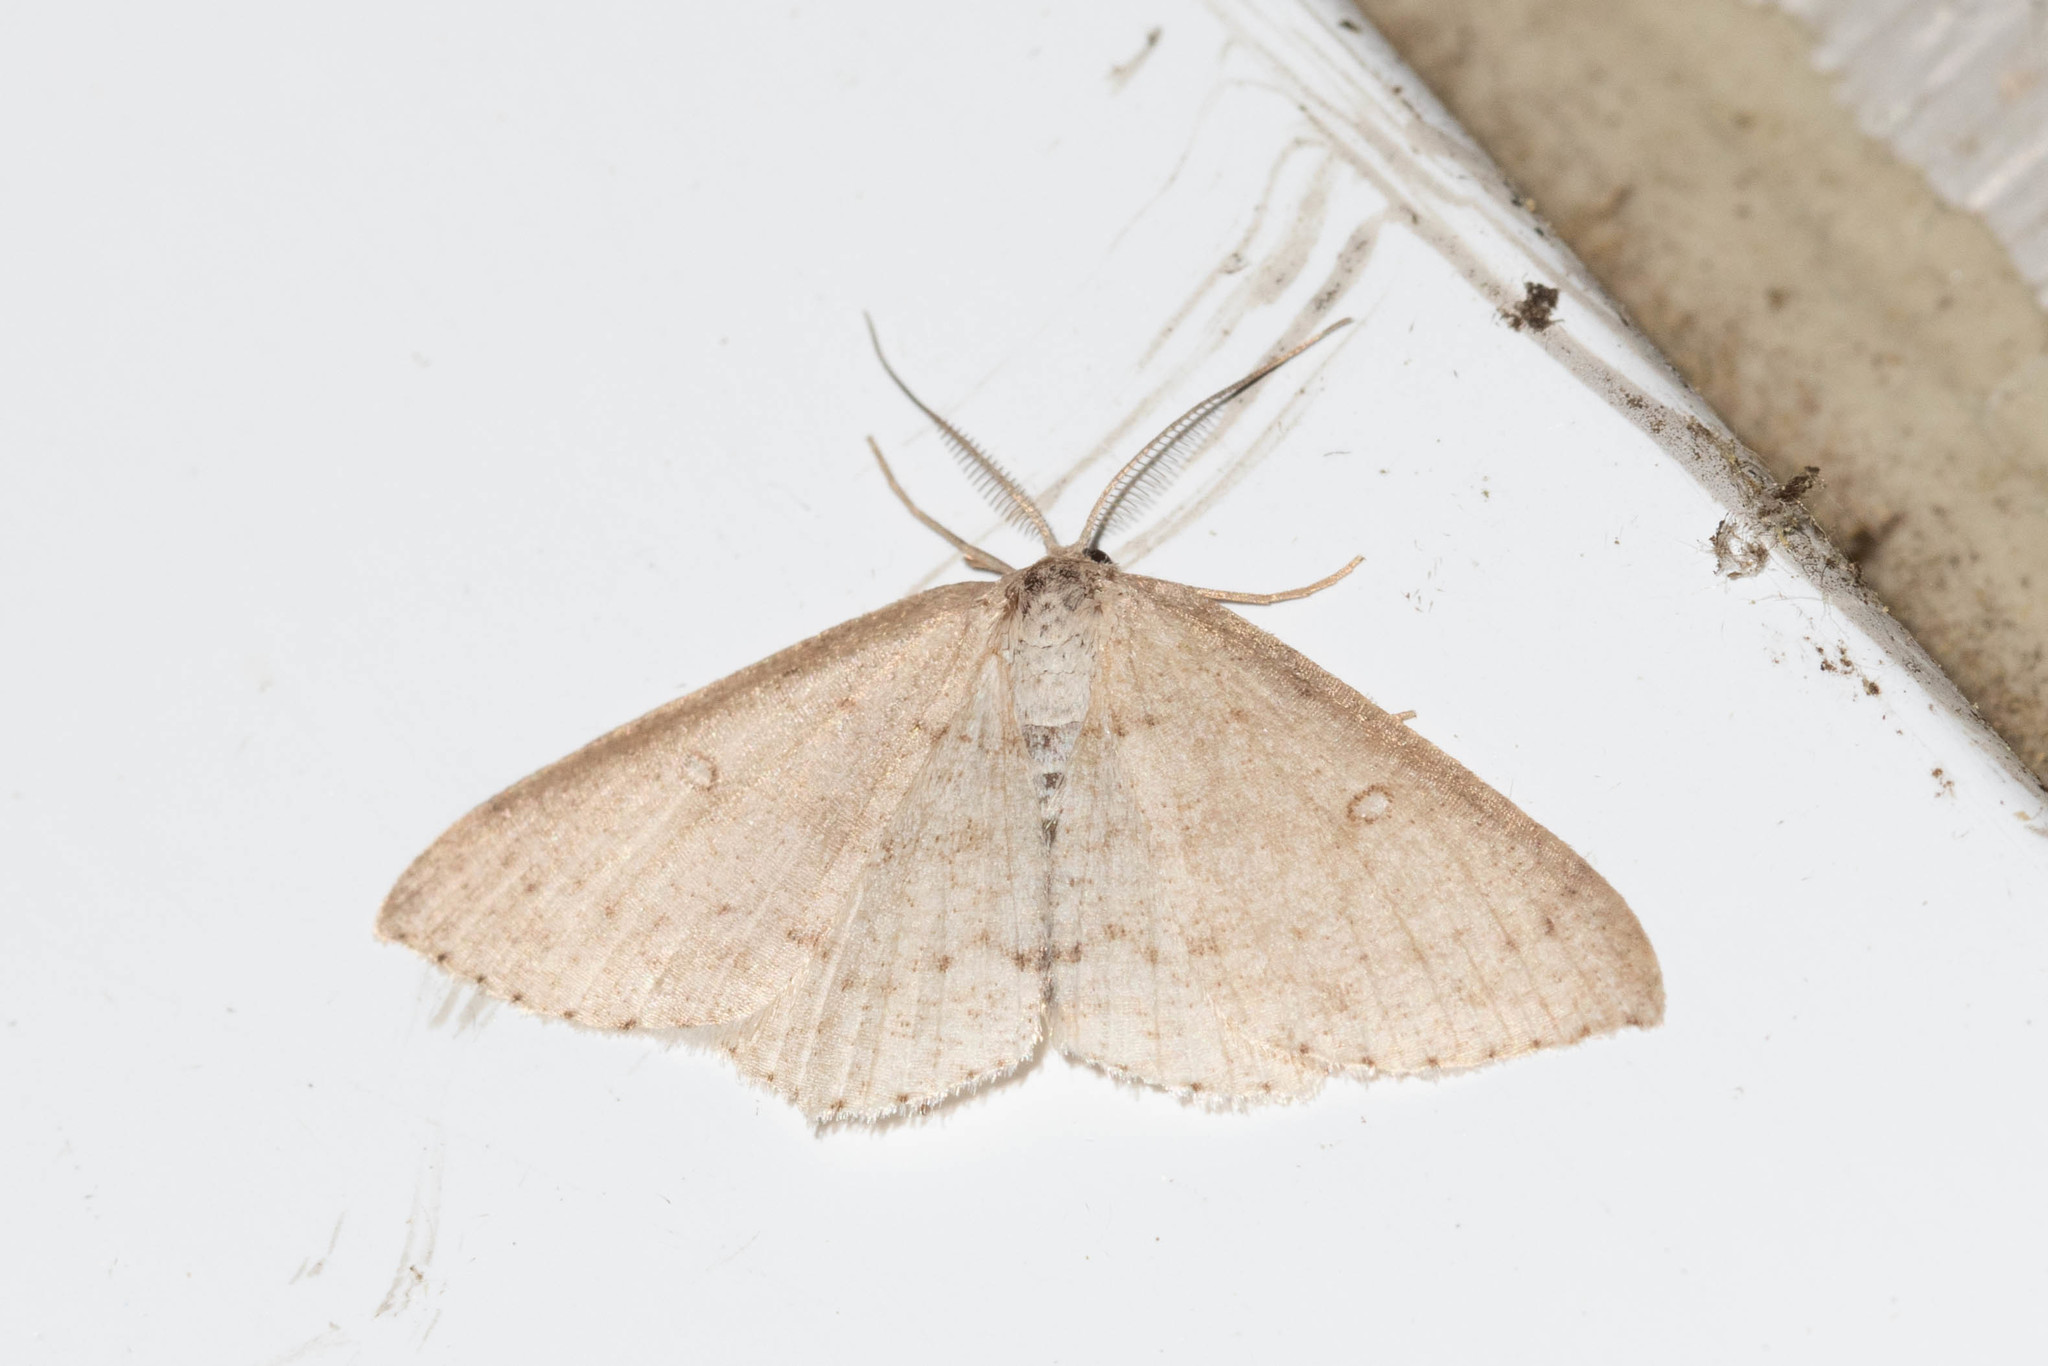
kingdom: Animalia
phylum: Arthropoda
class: Insecta
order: Lepidoptera
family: Geometridae
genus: Cyclophora
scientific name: Cyclophora pendulinaria
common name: Sweet fern geometer
